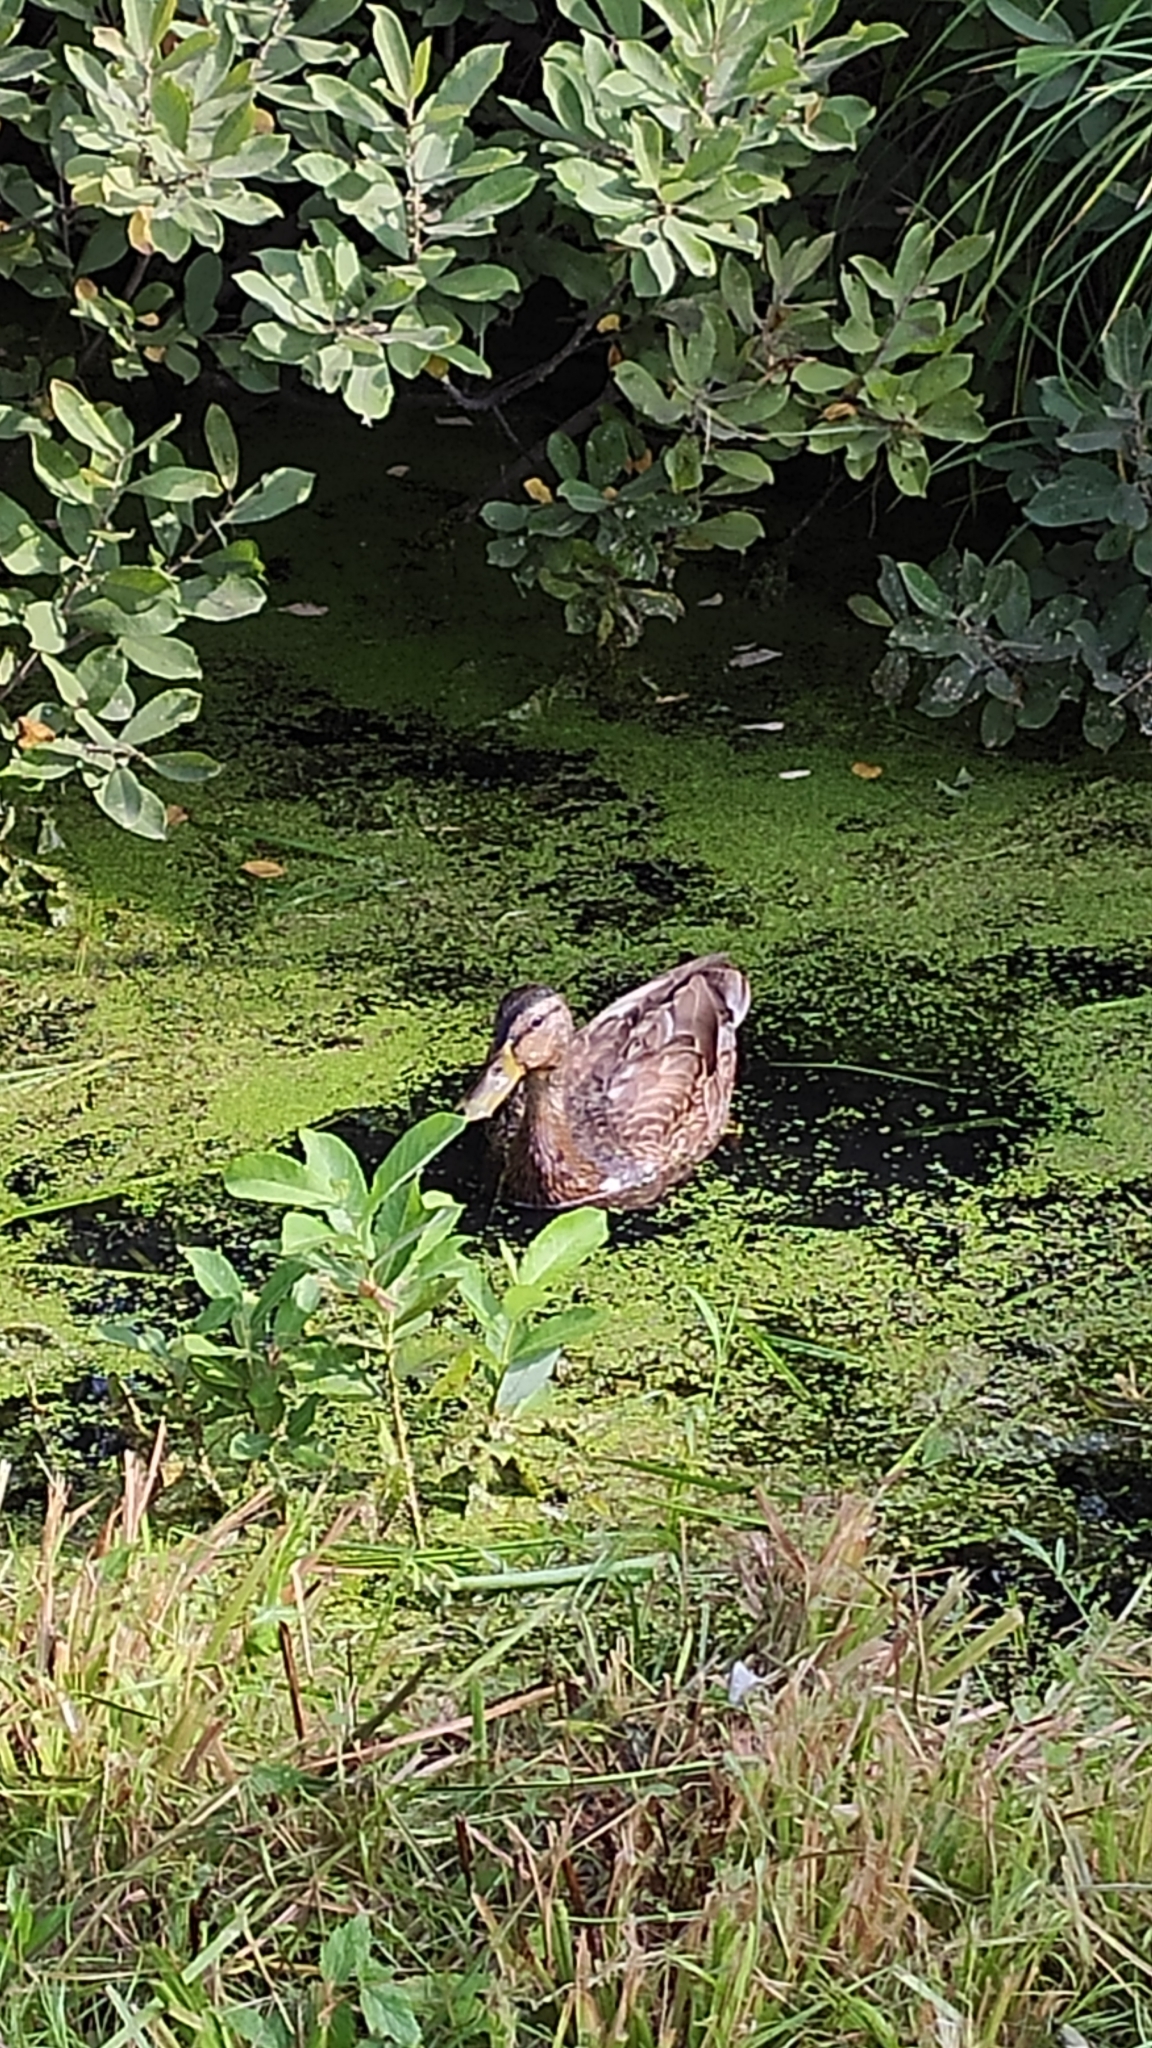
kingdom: Animalia
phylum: Chordata
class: Aves
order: Anseriformes
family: Anatidae
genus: Anas
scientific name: Anas platyrhynchos
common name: Mallard
